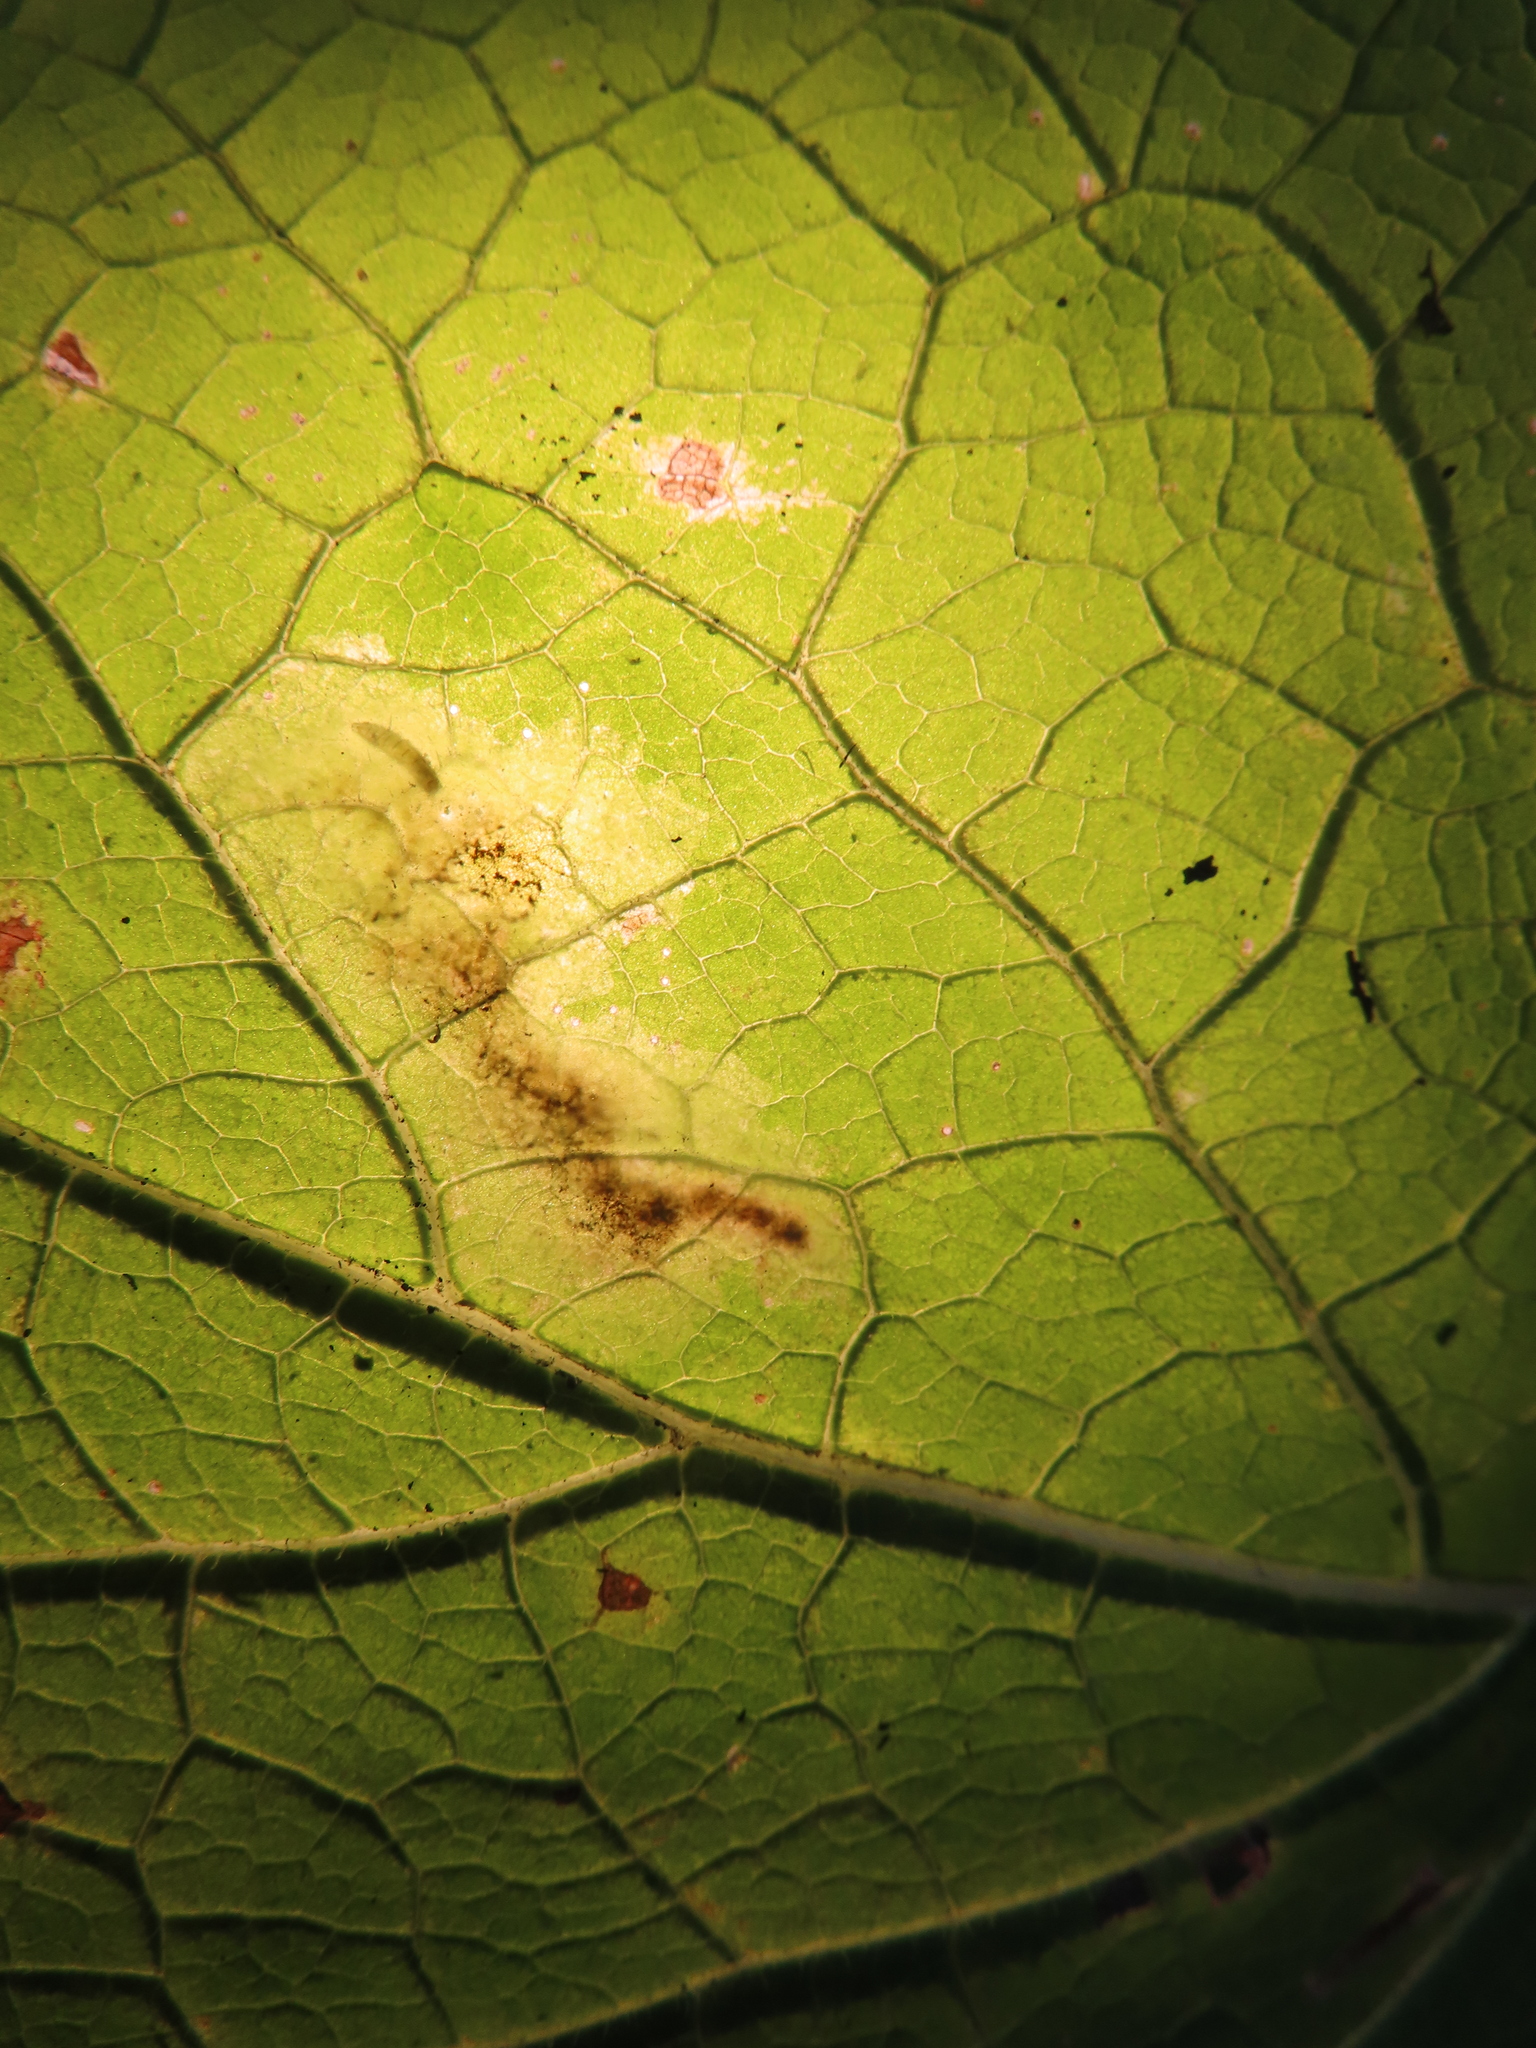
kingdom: Animalia
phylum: Arthropoda
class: Insecta
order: Diptera
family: Agromyzidae
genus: Calycomyza
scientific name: Calycomyza flavinotum
